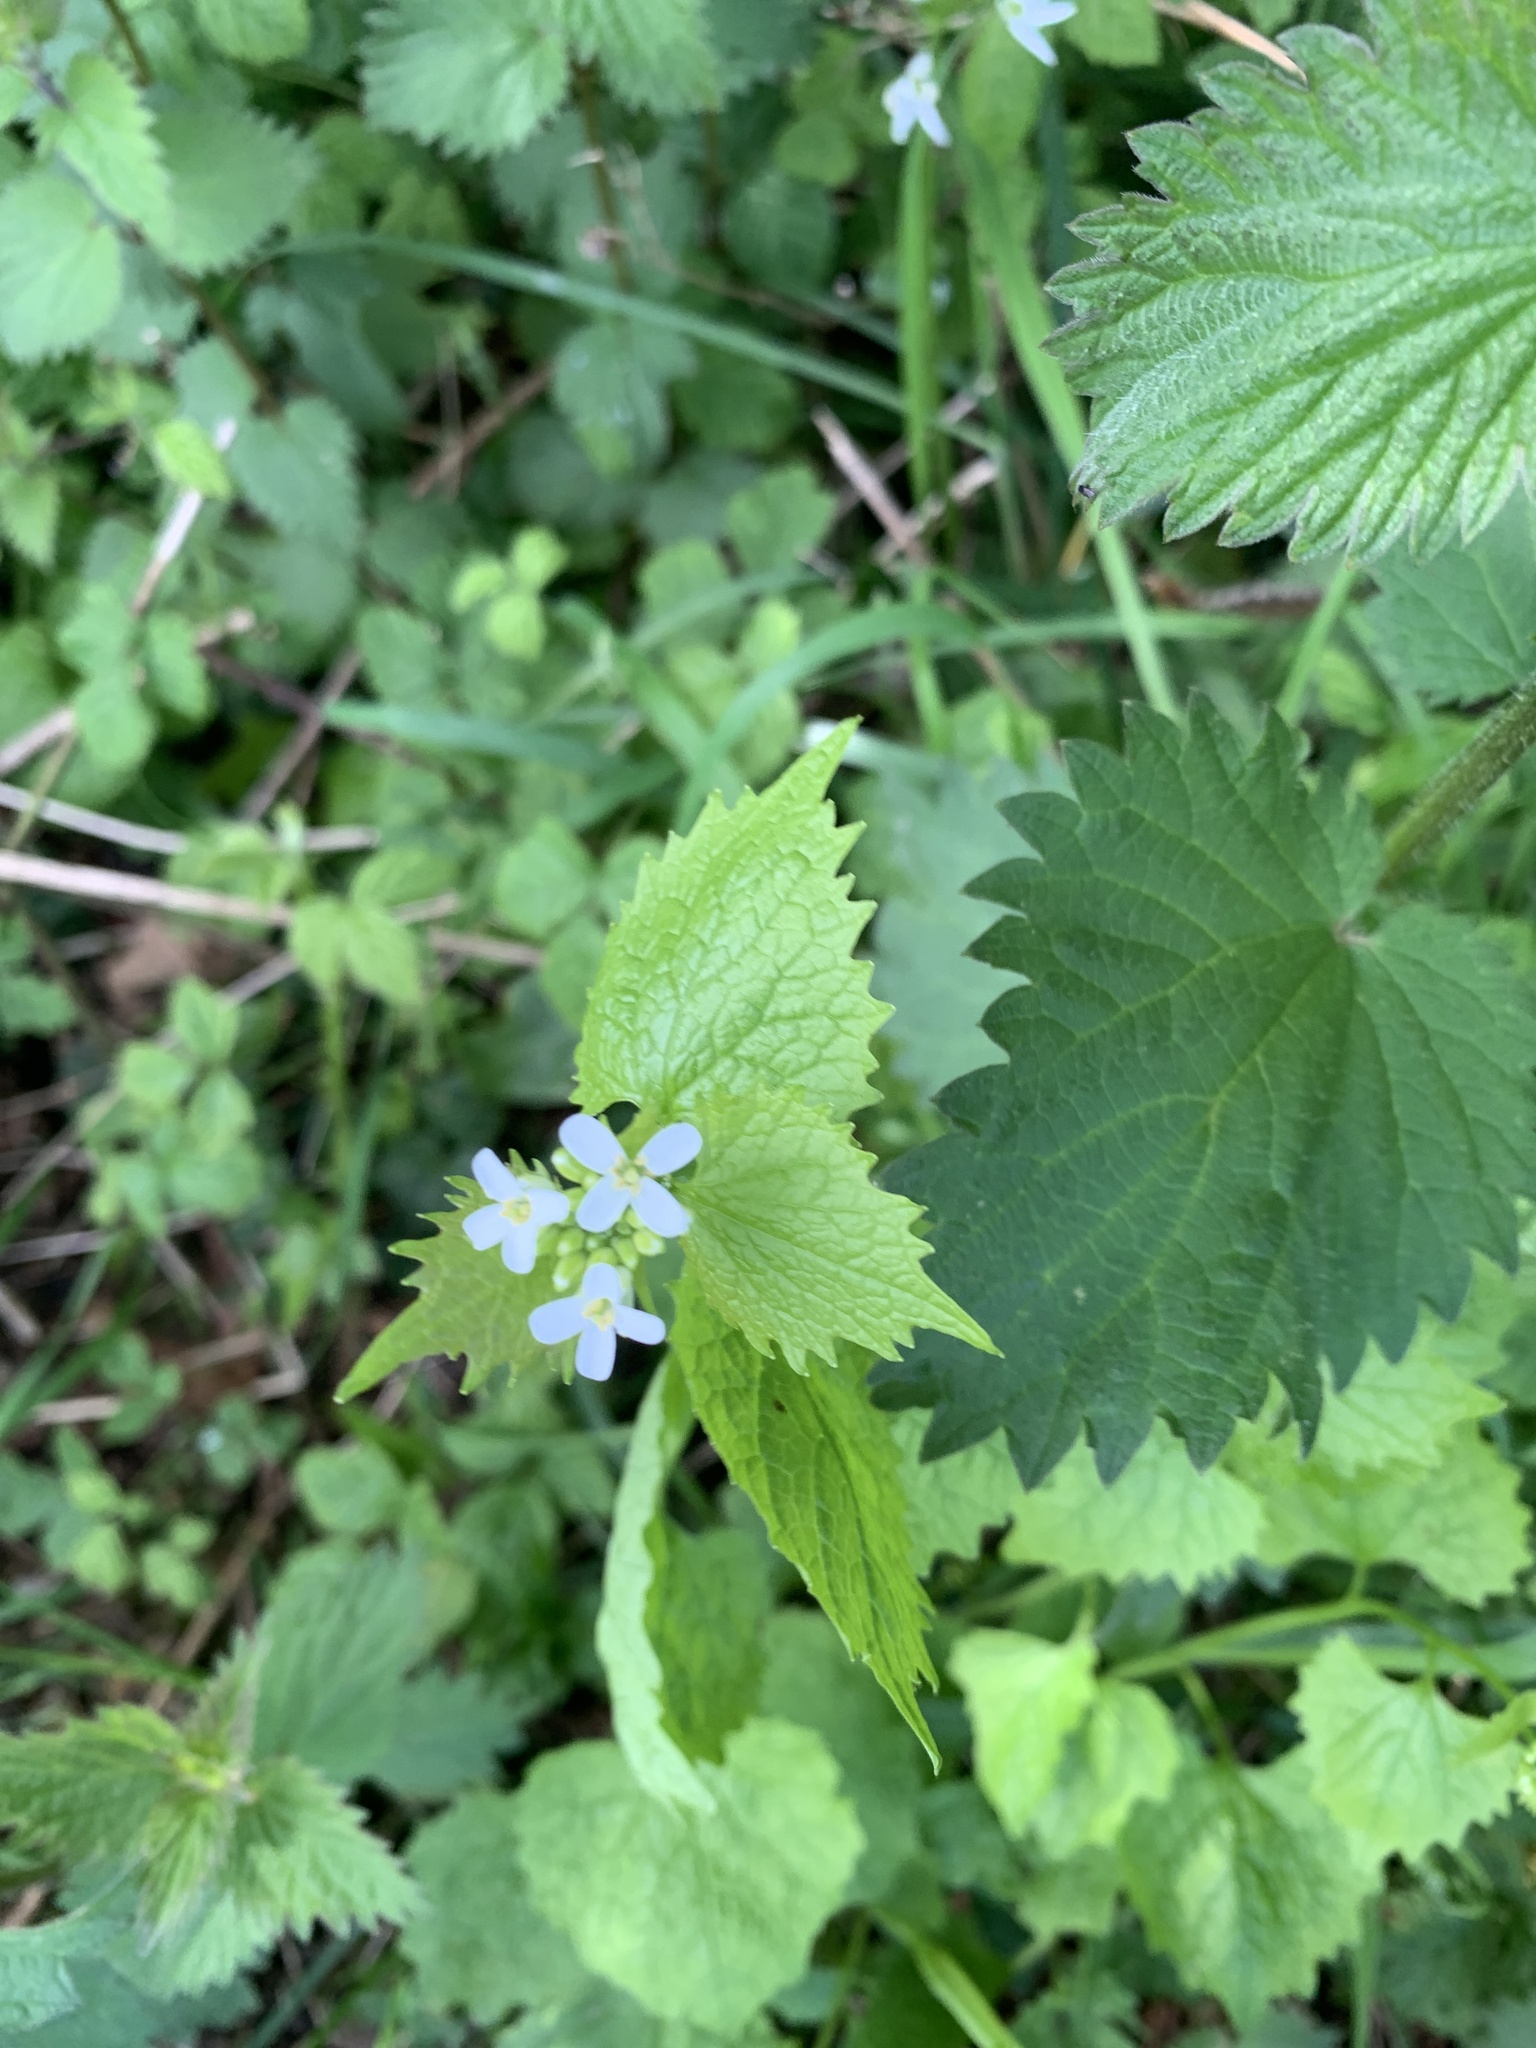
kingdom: Plantae
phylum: Tracheophyta
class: Magnoliopsida
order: Brassicales
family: Brassicaceae
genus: Alliaria
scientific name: Alliaria petiolata
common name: Garlic mustard
